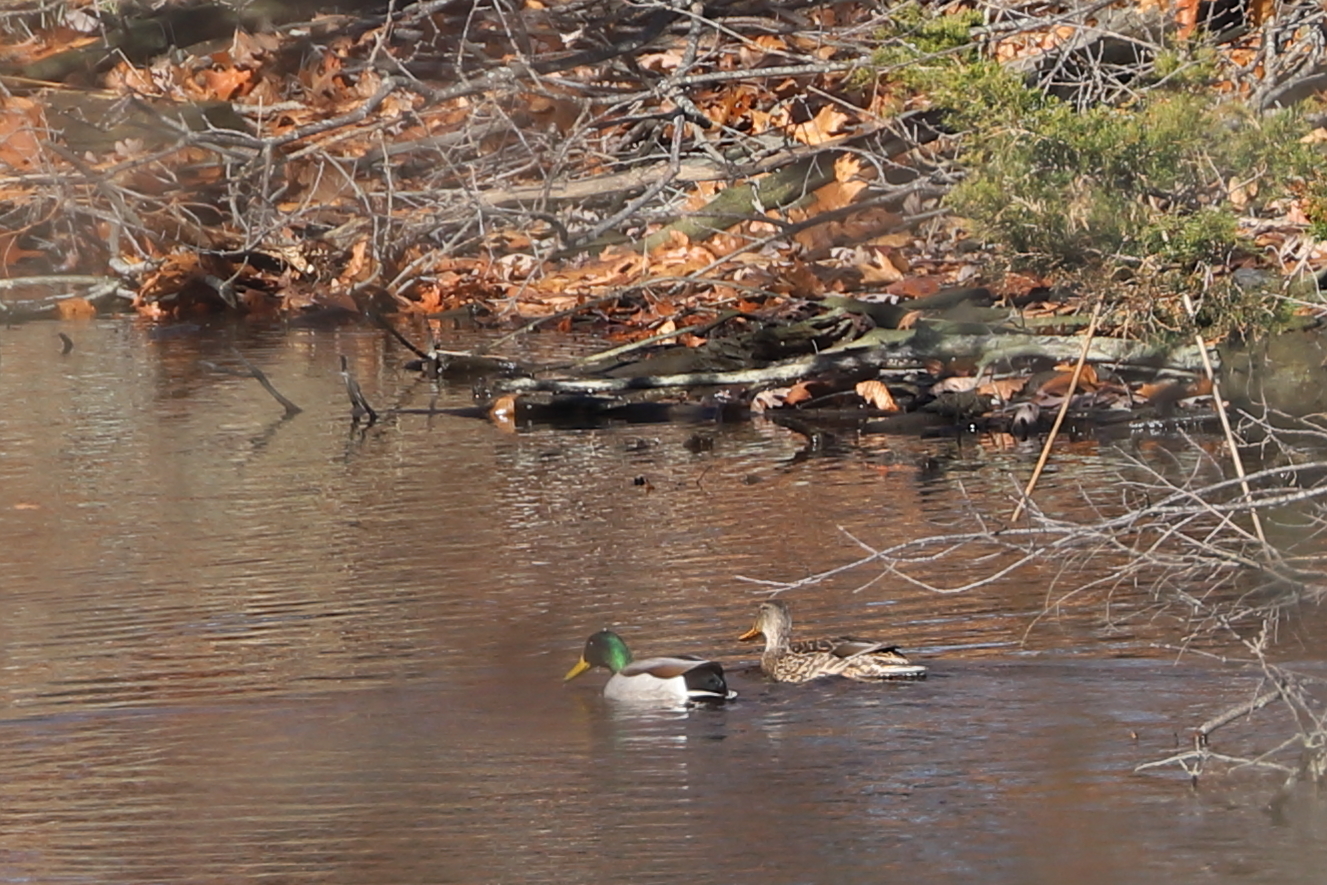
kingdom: Animalia
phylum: Chordata
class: Aves
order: Anseriformes
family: Anatidae
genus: Anas
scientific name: Anas platyrhynchos
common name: Mallard
